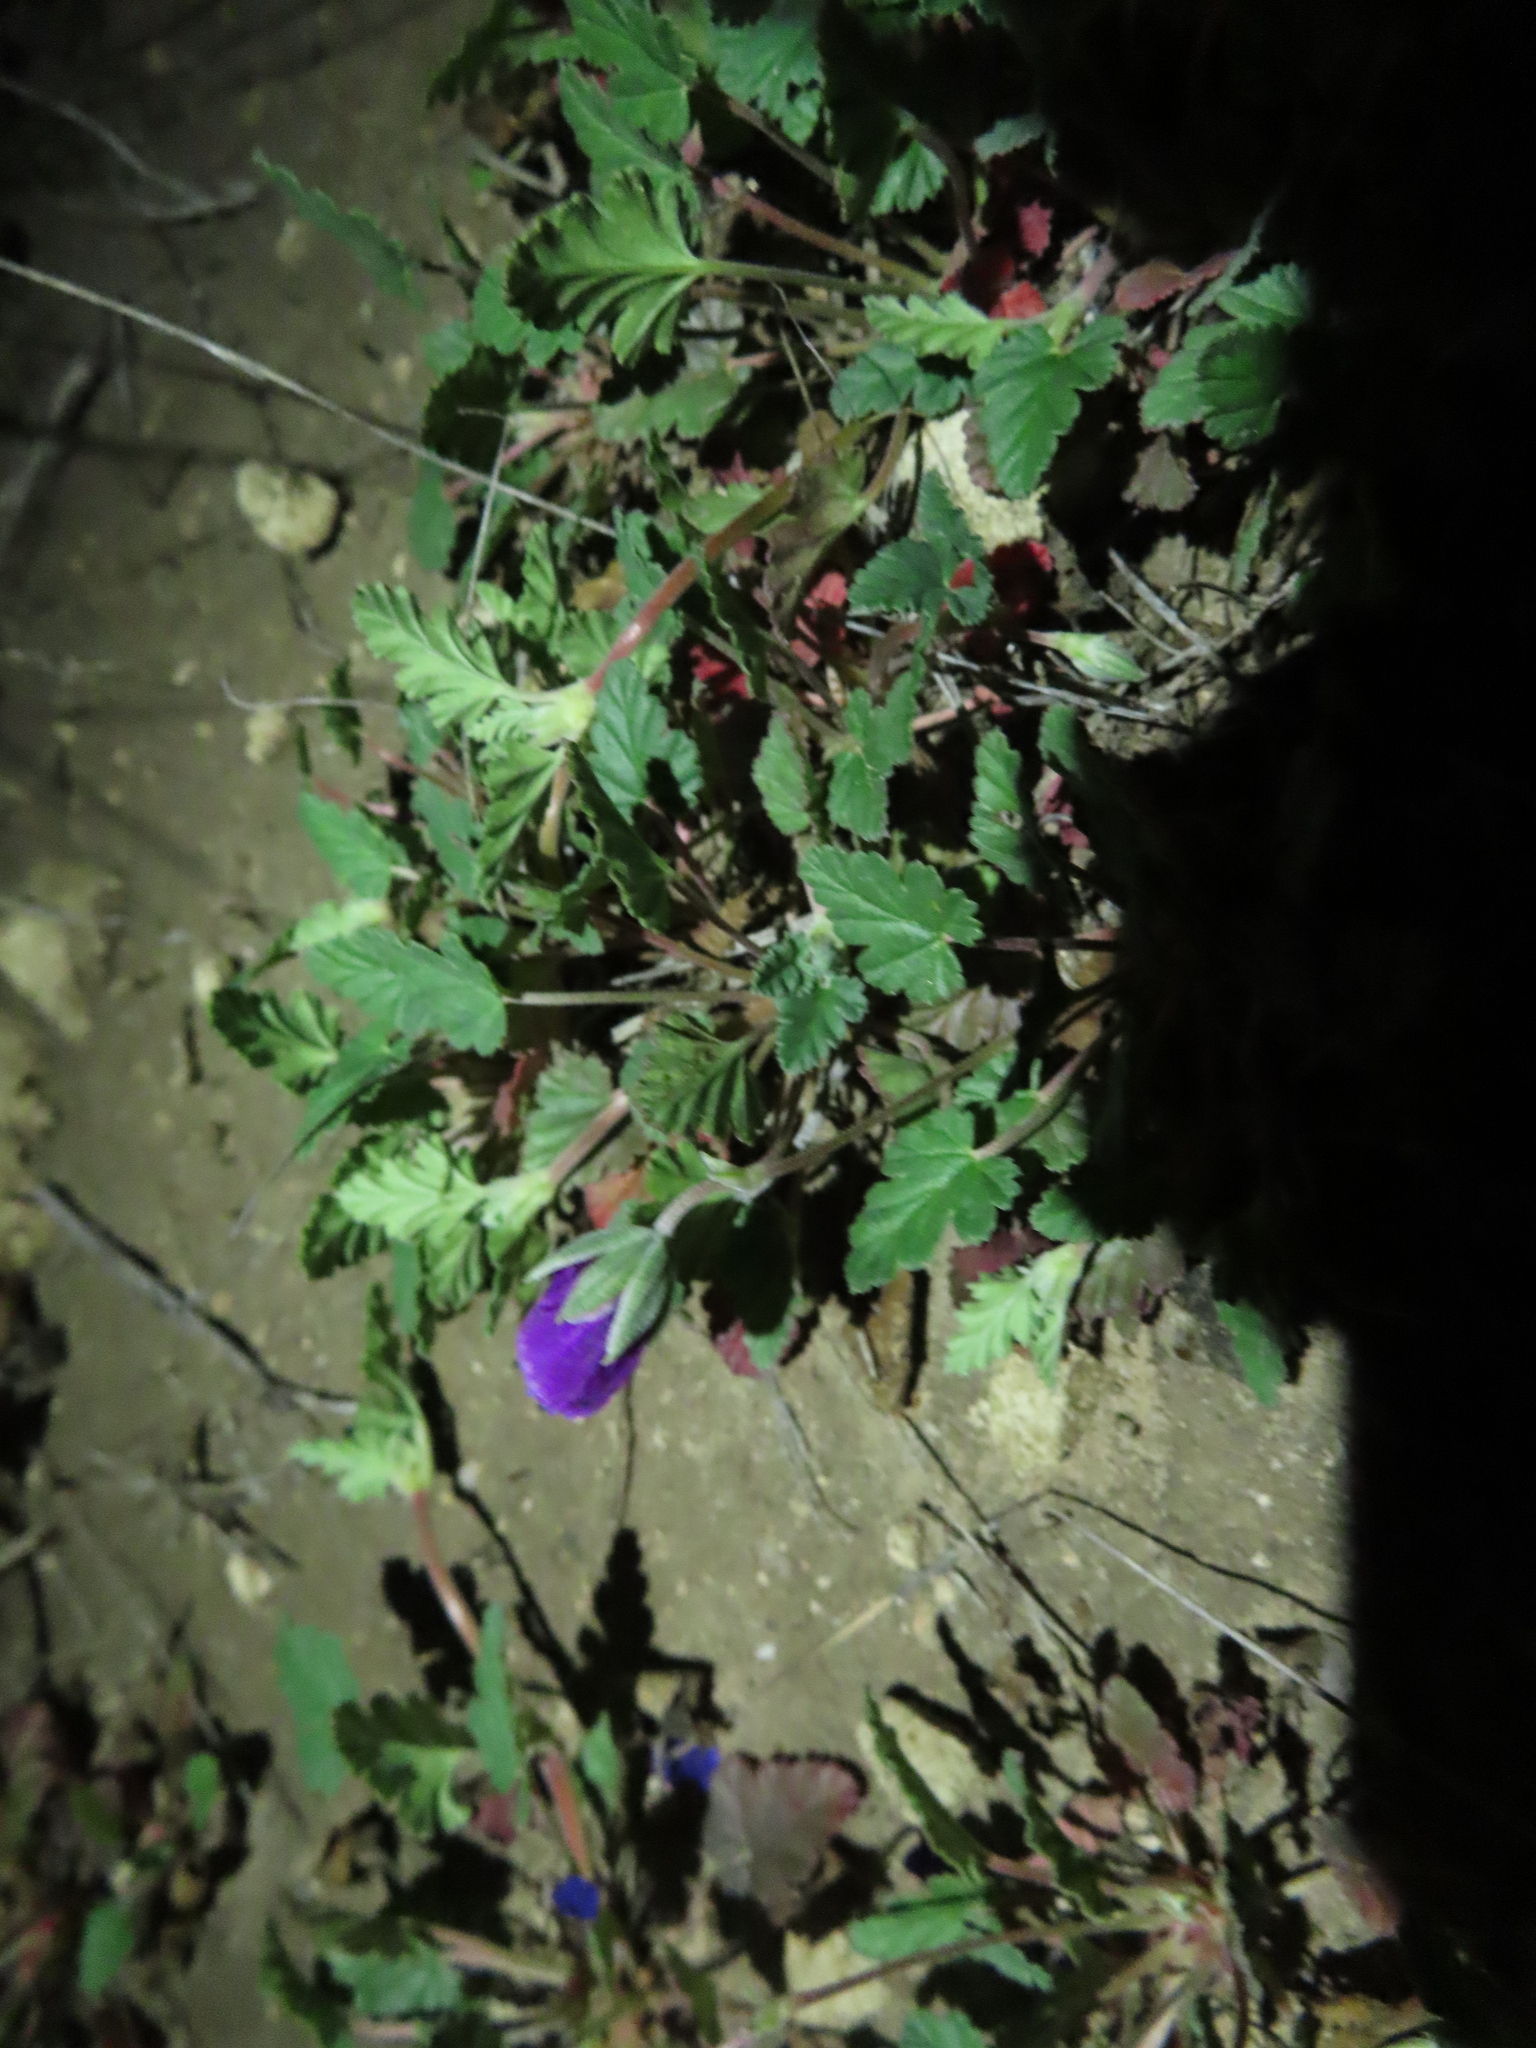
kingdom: Plantae
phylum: Tracheophyta
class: Magnoliopsida
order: Geraniales
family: Geraniaceae
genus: Erodium
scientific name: Erodium texanum
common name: Texas stork's-bill
